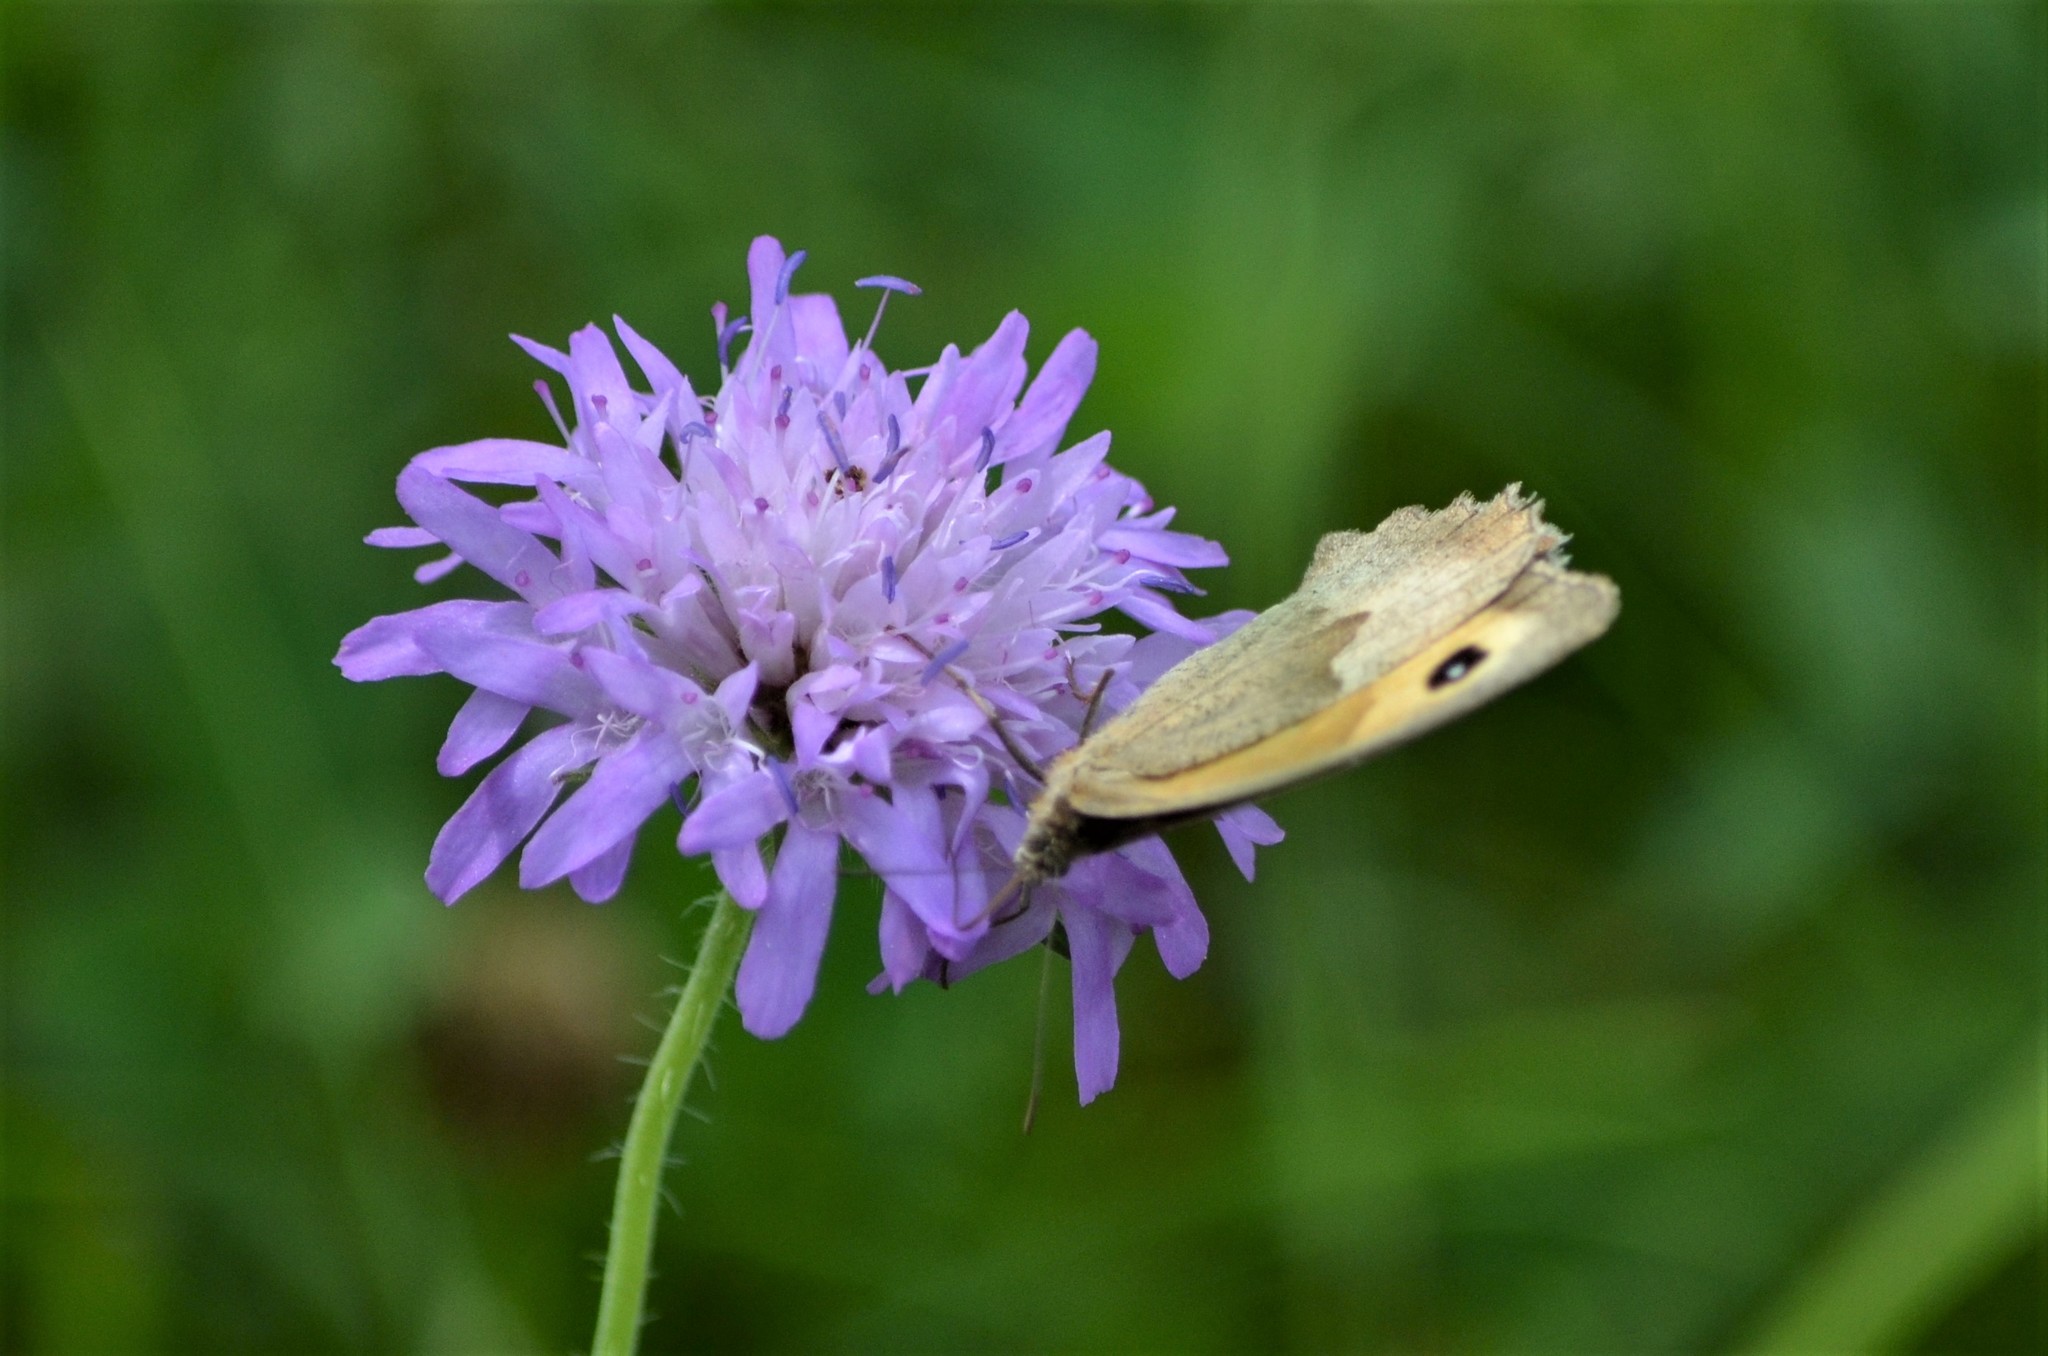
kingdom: Animalia
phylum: Arthropoda
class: Insecta
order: Lepidoptera
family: Nymphalidae
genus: Maniola
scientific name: Maniola jurtina
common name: Meadow brown
